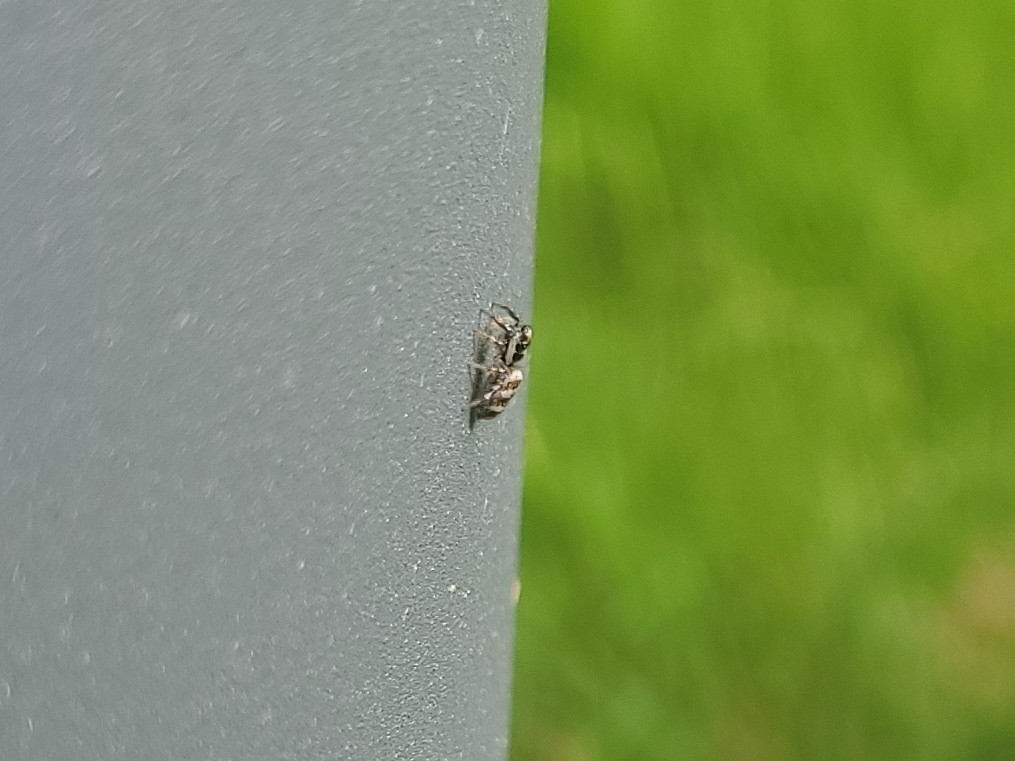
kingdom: Animalia
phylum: Arthropoda
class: Arachnida
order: Araneae
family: Salticidae
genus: Salticus
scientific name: Salticus scenicus
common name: Zebra jumper
